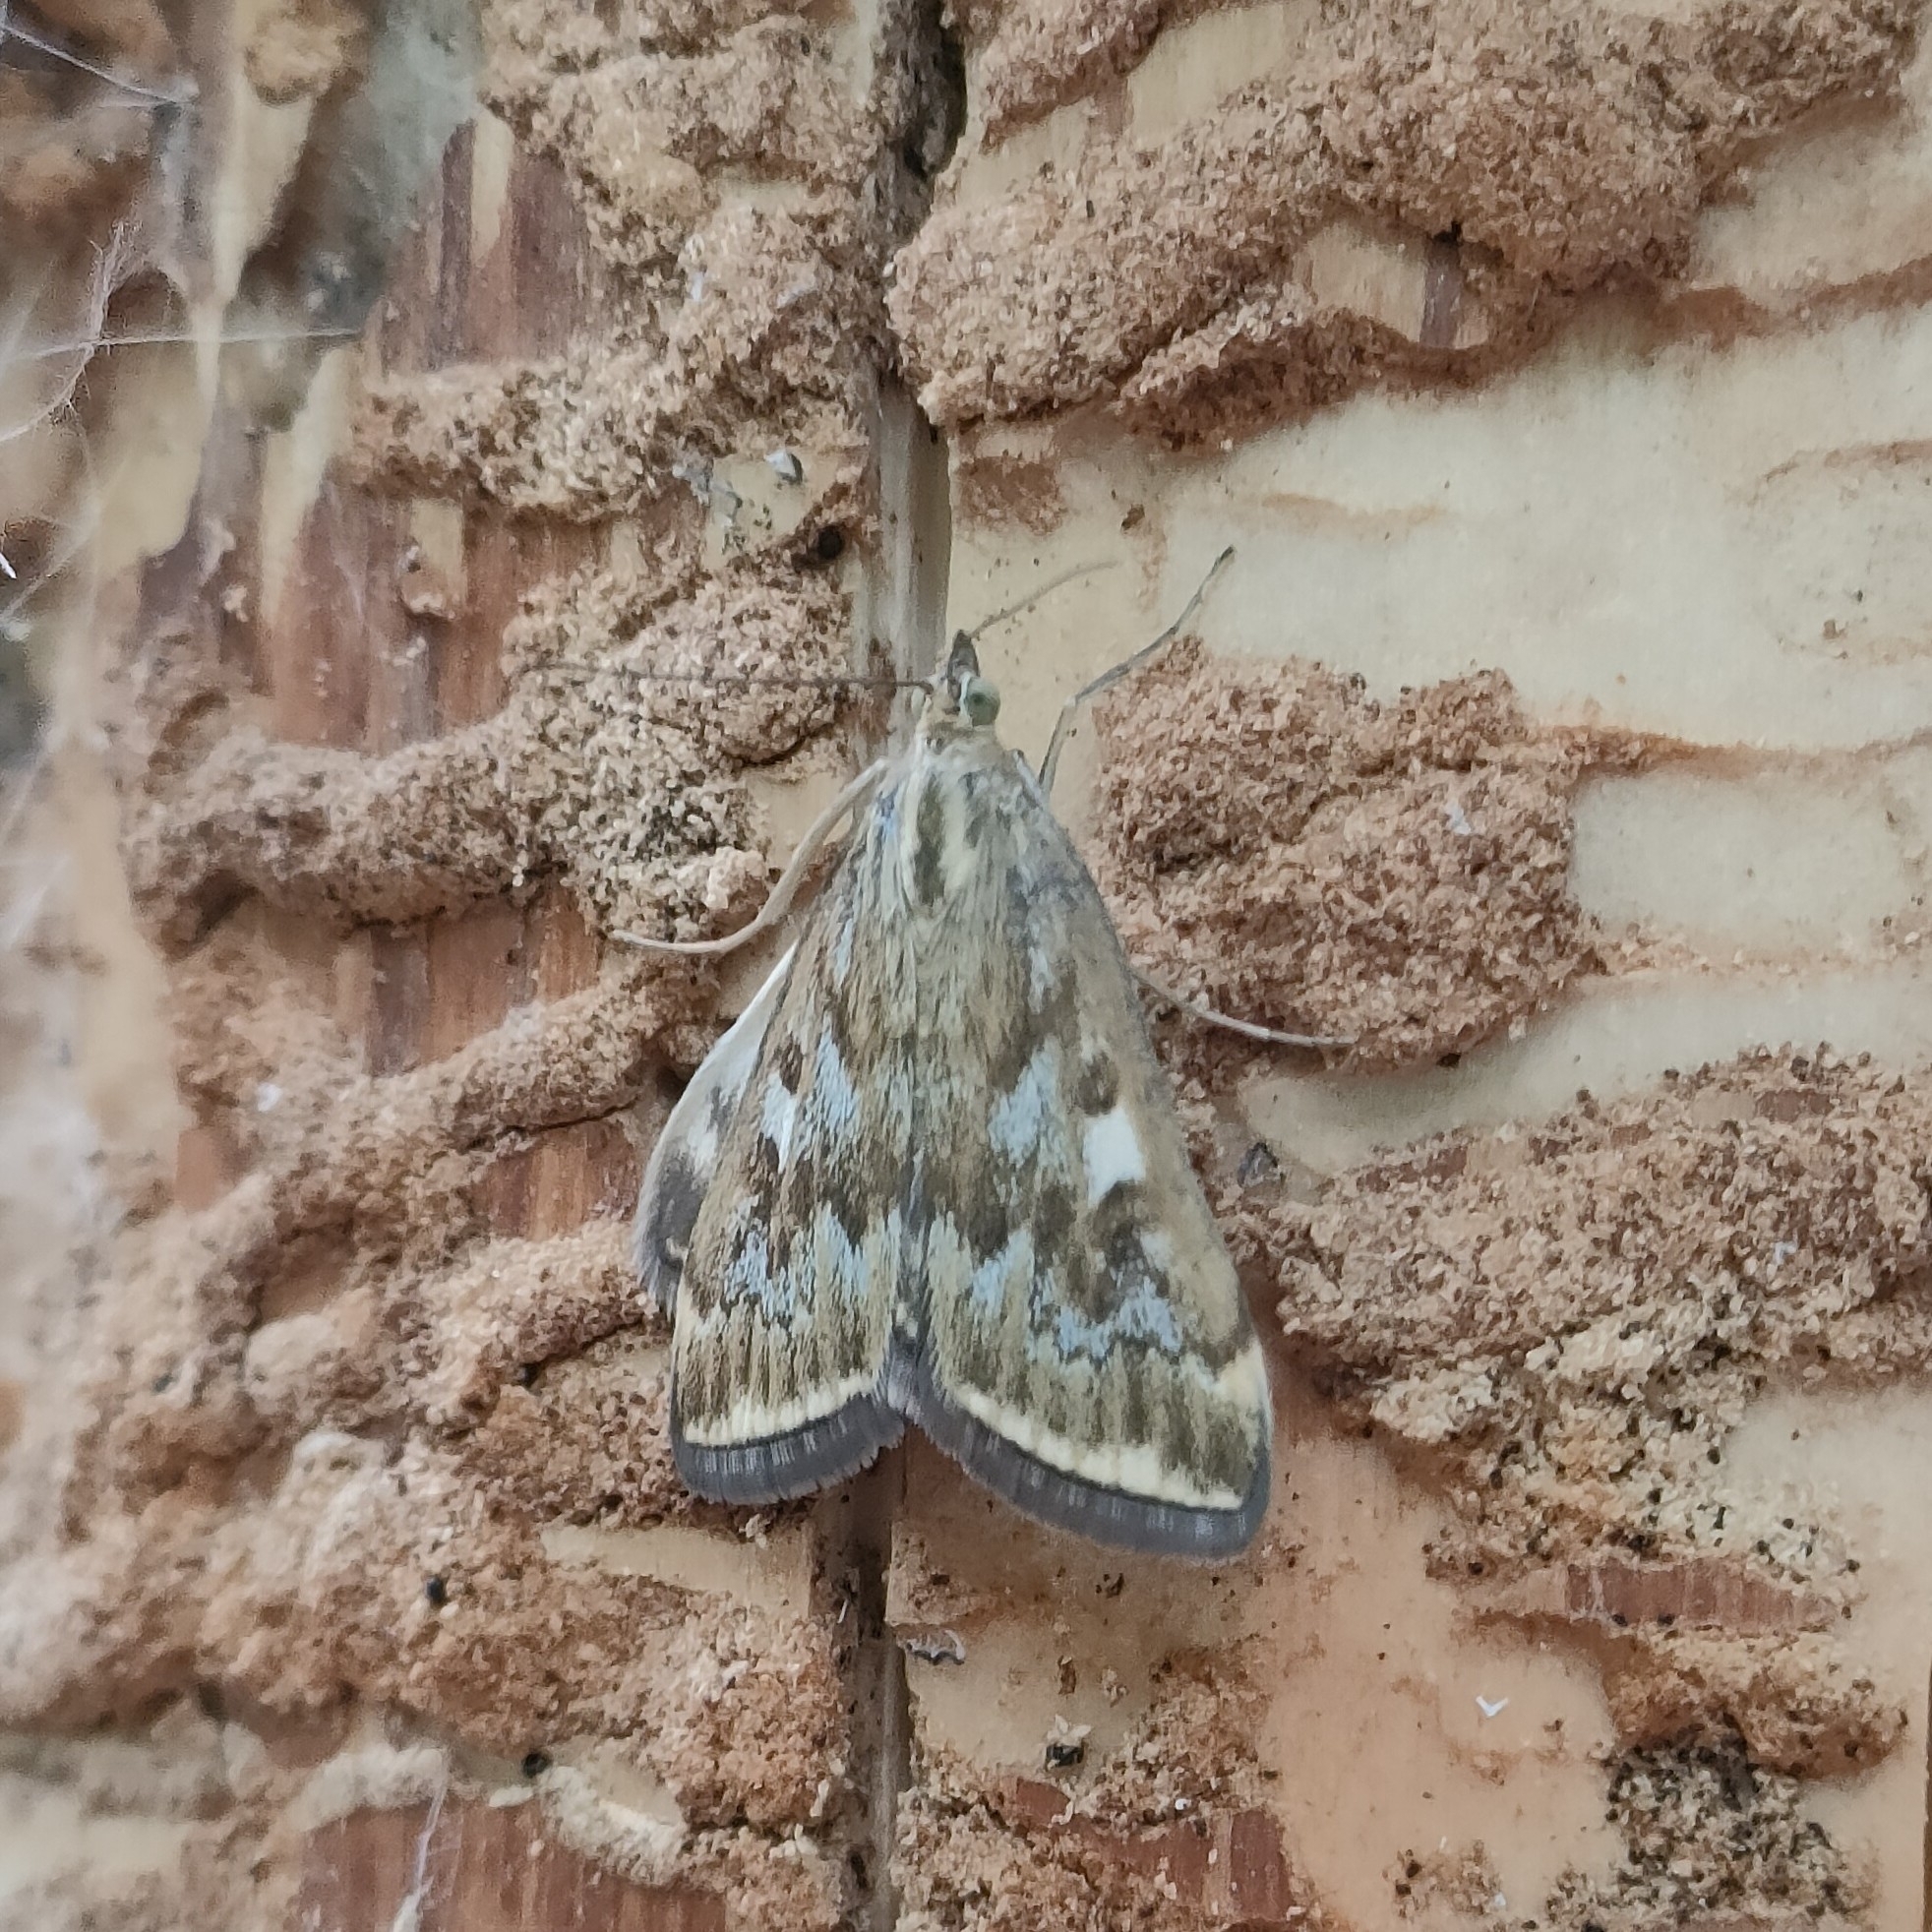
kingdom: Animalia
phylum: Arthropoda
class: Insecta
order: Lepidoptera
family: Crambidae
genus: Loxostege
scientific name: Loxostege sticticalis
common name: Crambid moth
